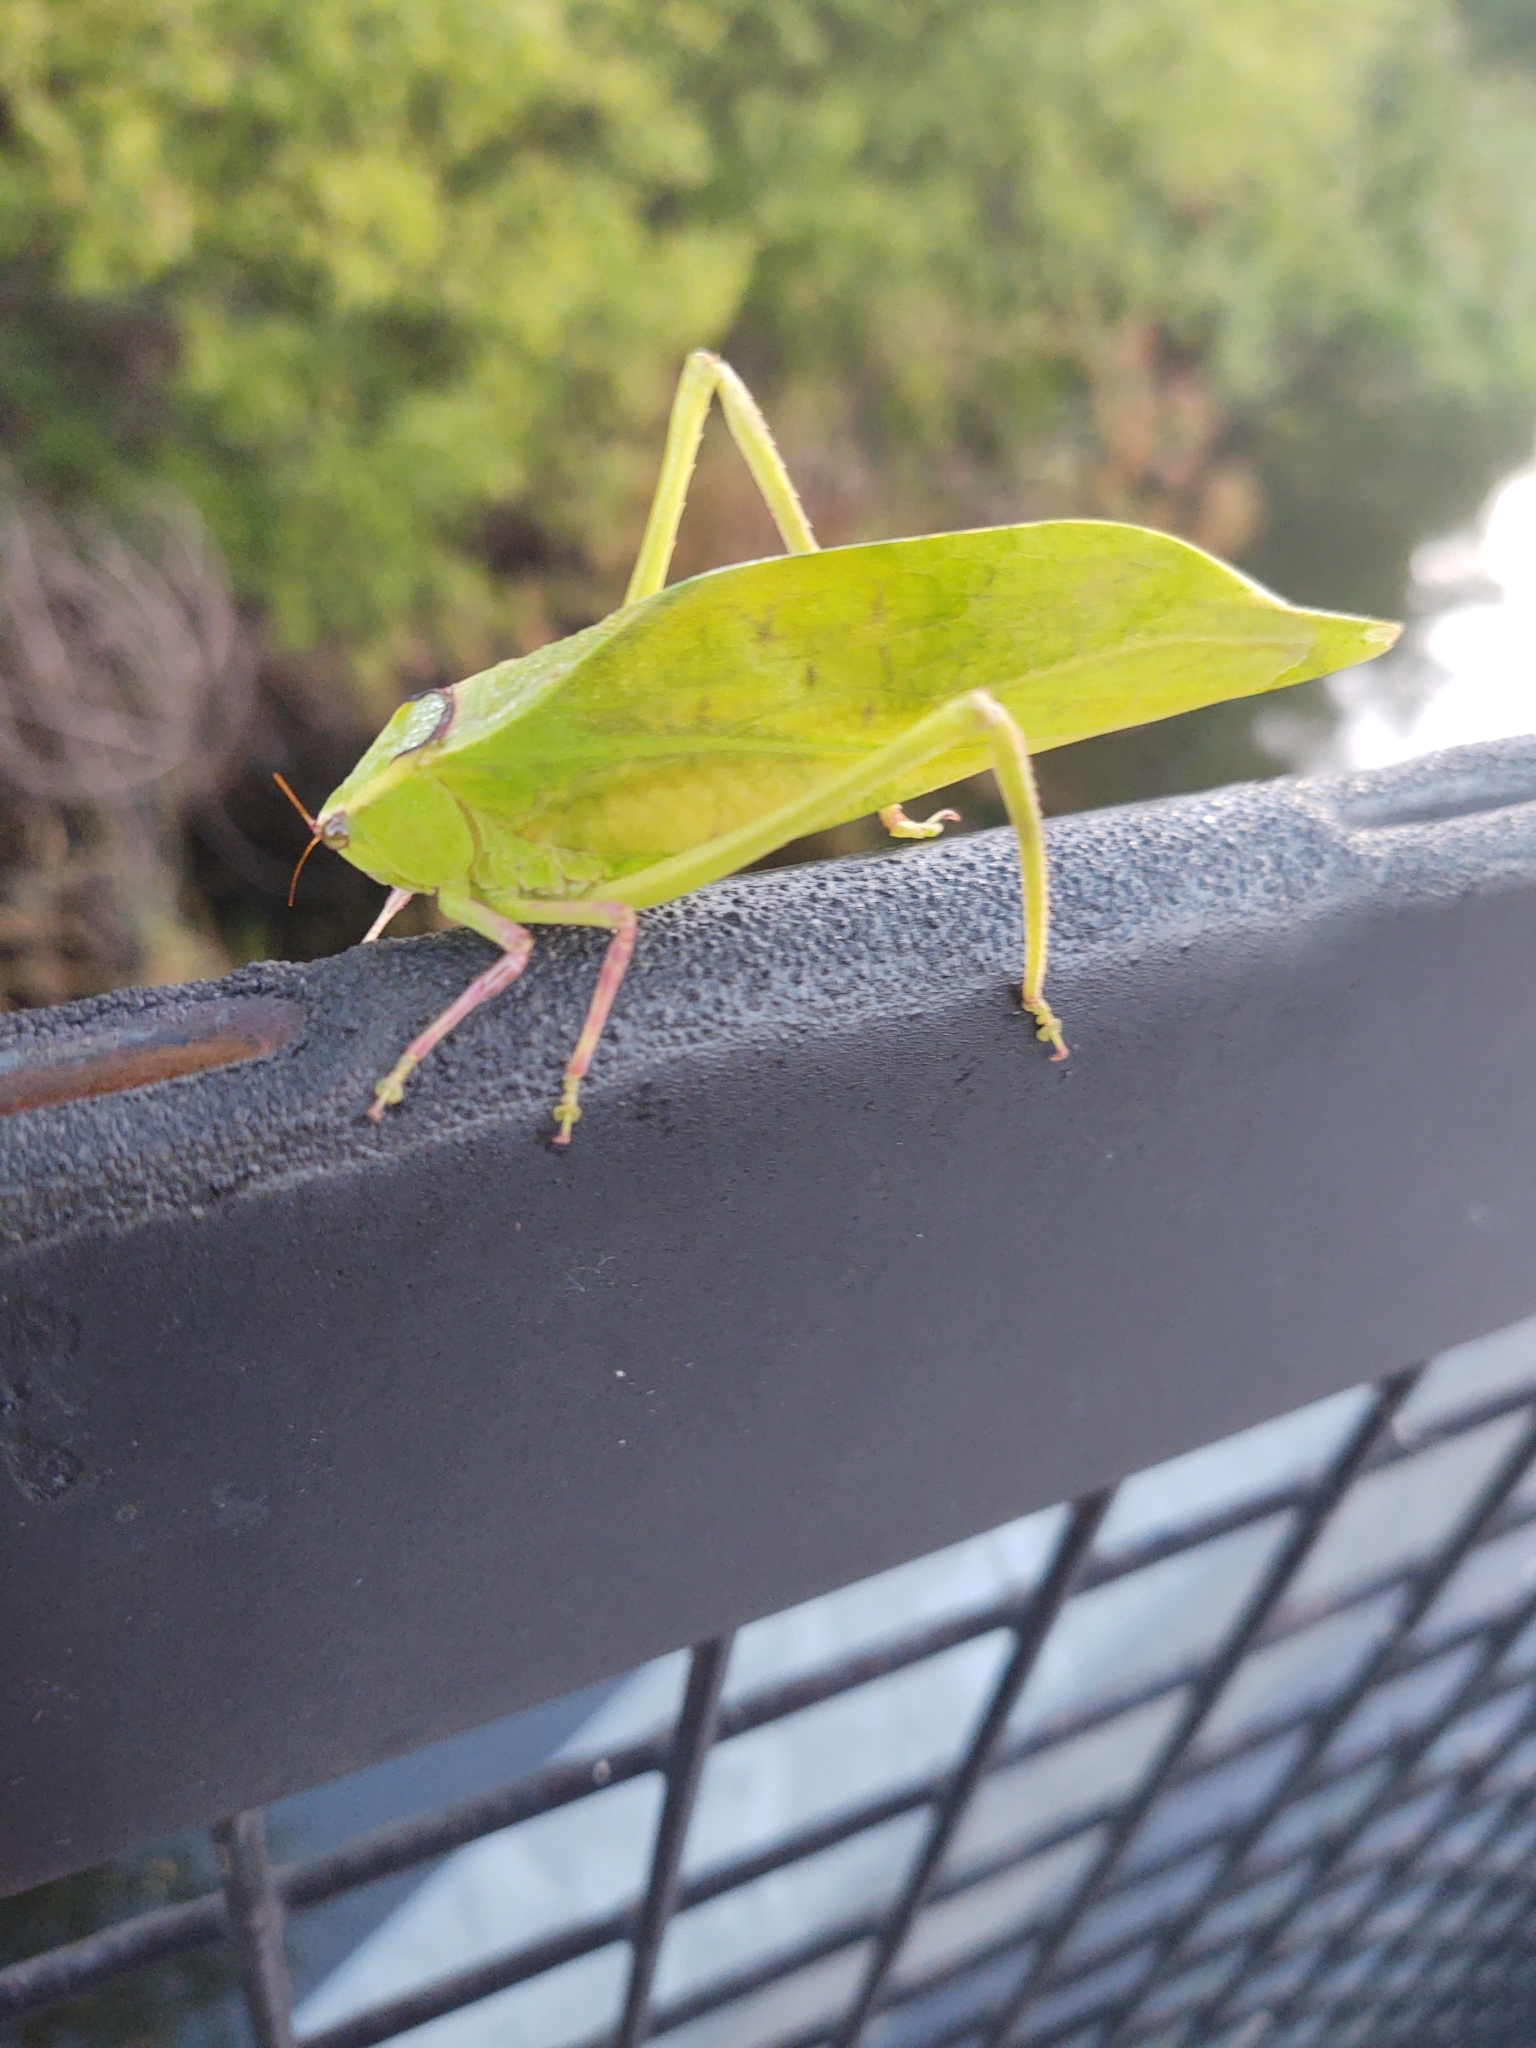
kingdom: Animalia
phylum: Arthropoda
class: Insecta
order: Orthoptera
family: Tettigoniidae
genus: Stilpnochlora
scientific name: Stilpnochlora couloniana
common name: Giant katydid
